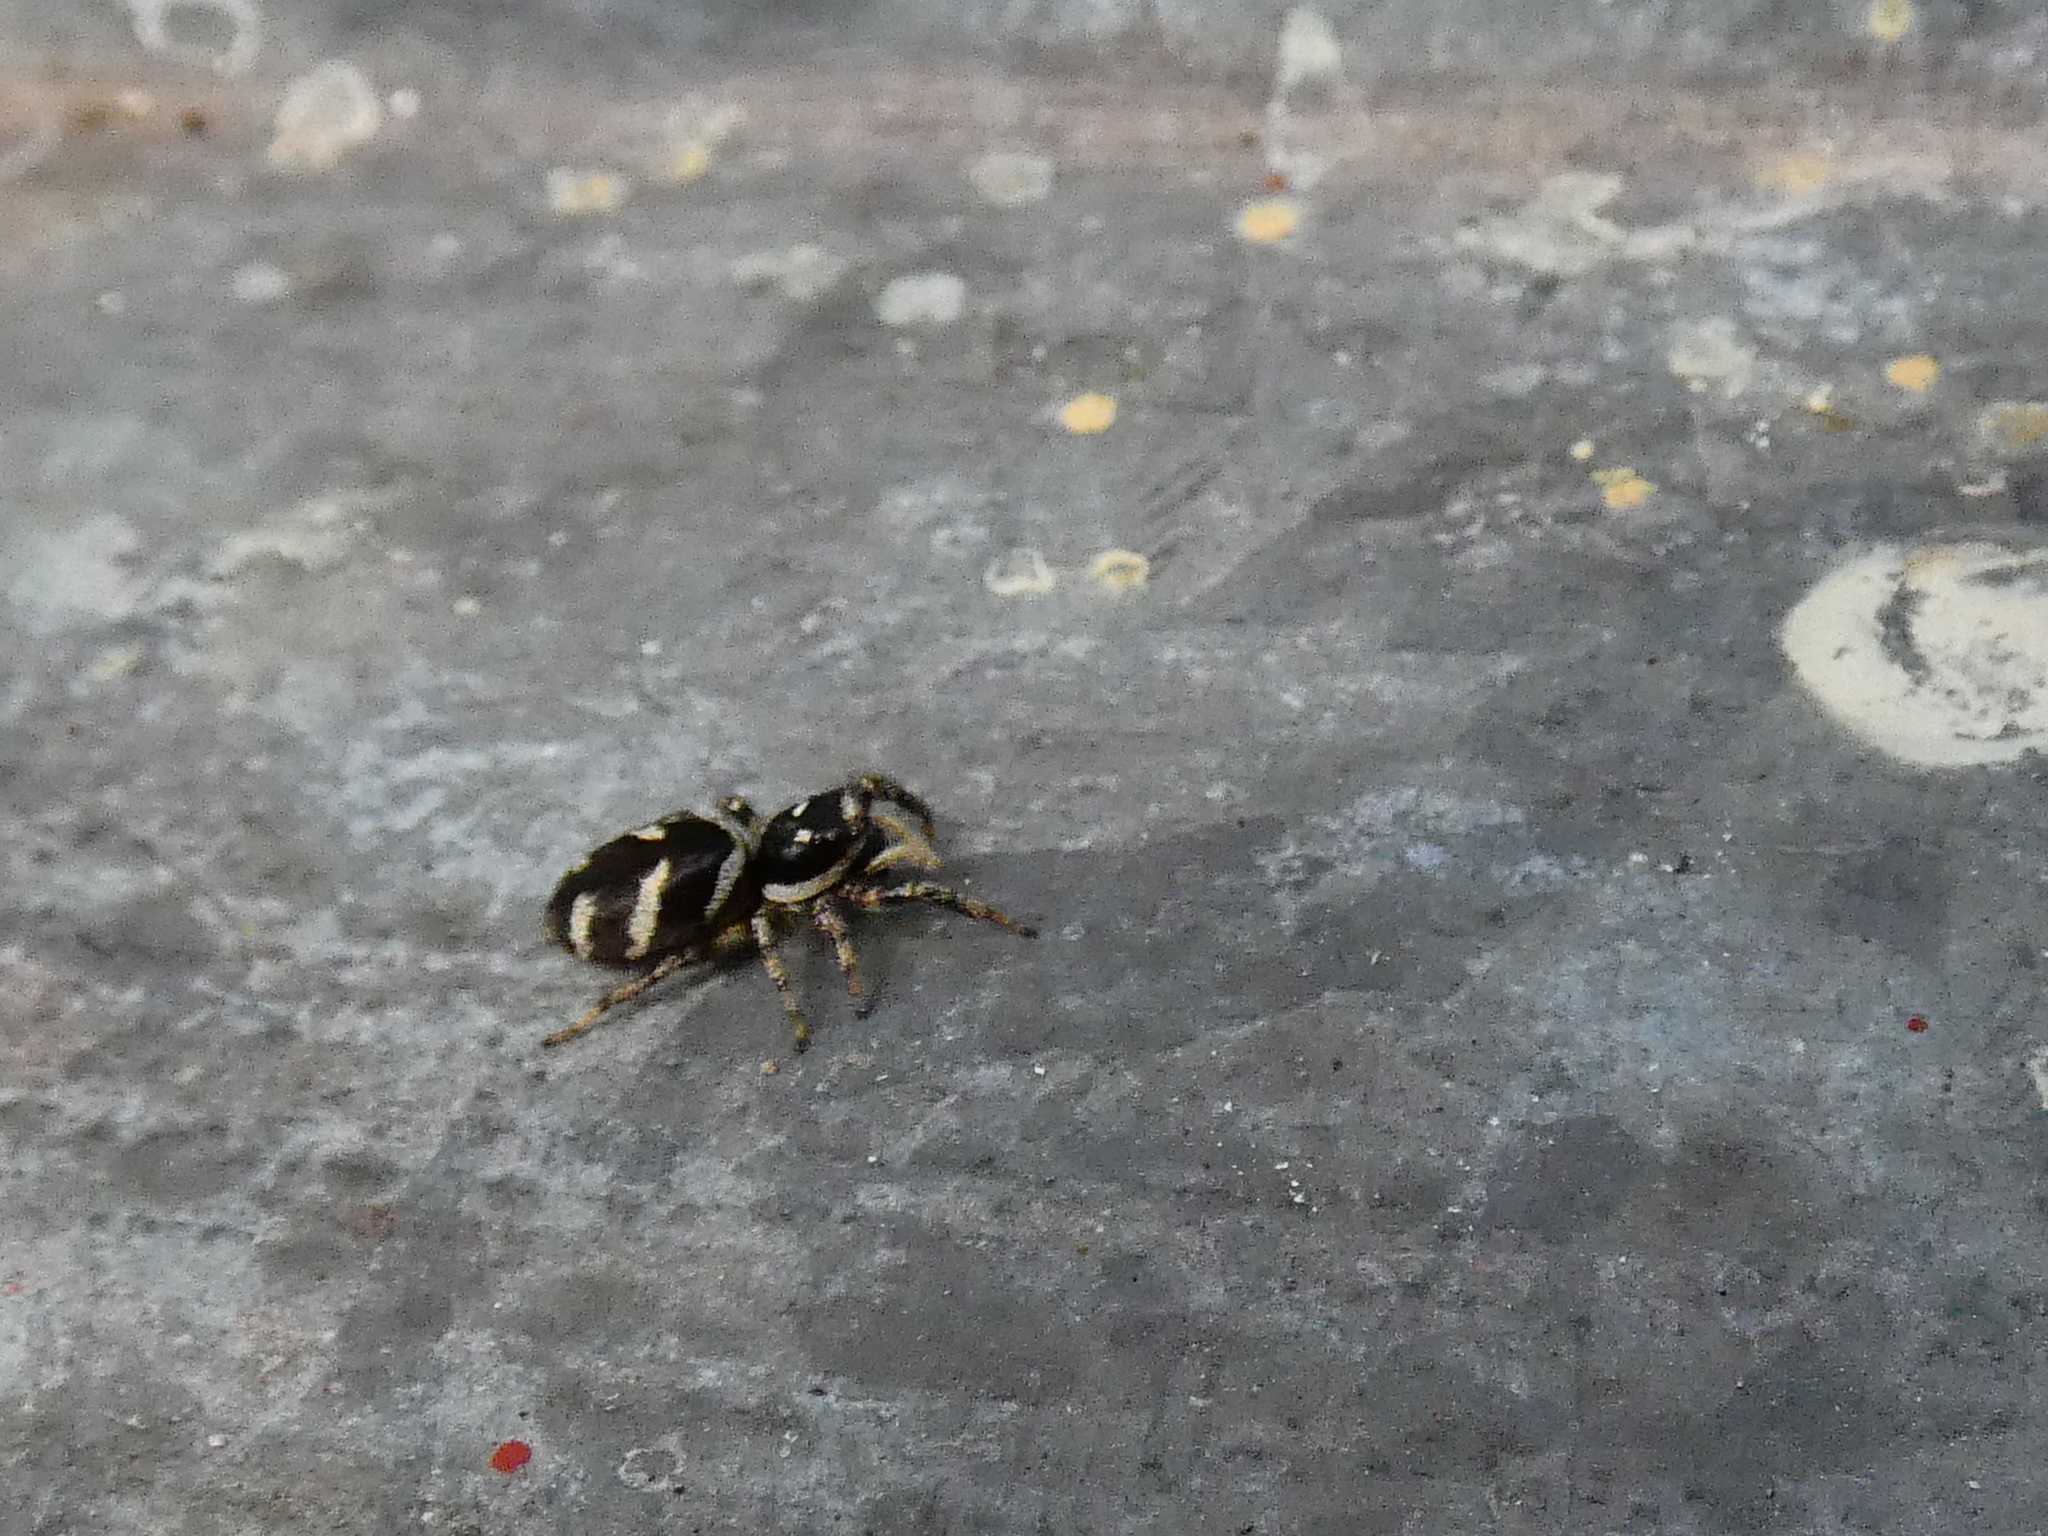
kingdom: Animalia
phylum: Arthropoda
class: Arachnida
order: Araneae
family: Salticidae
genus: Salticus
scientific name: Salticus scenicus
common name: Zebra jumper
